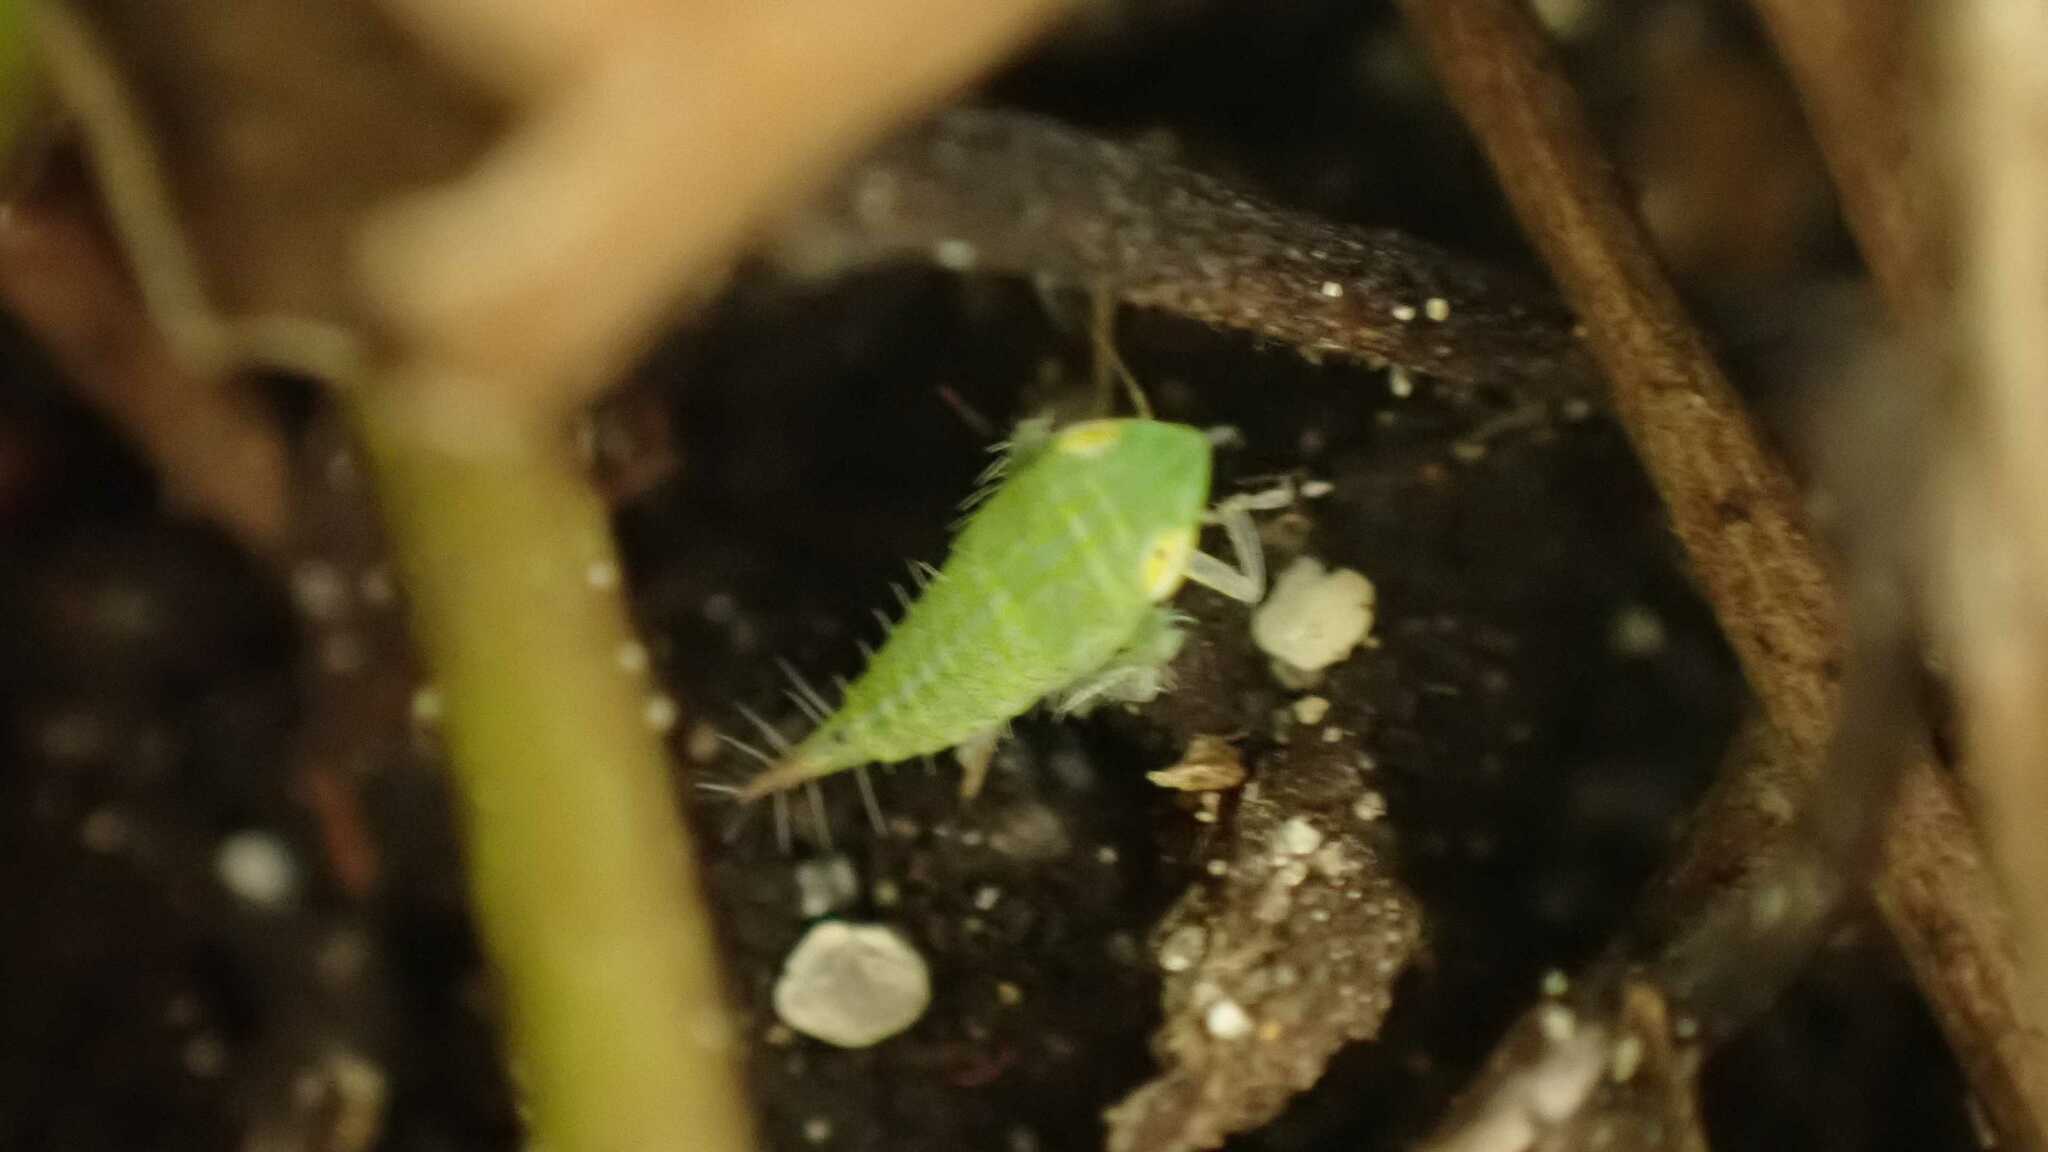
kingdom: Animalia
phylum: Arthropoda
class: Insecta
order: Hemiptera
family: Cicadellidae
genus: Fieberiella
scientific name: Fieberiella
